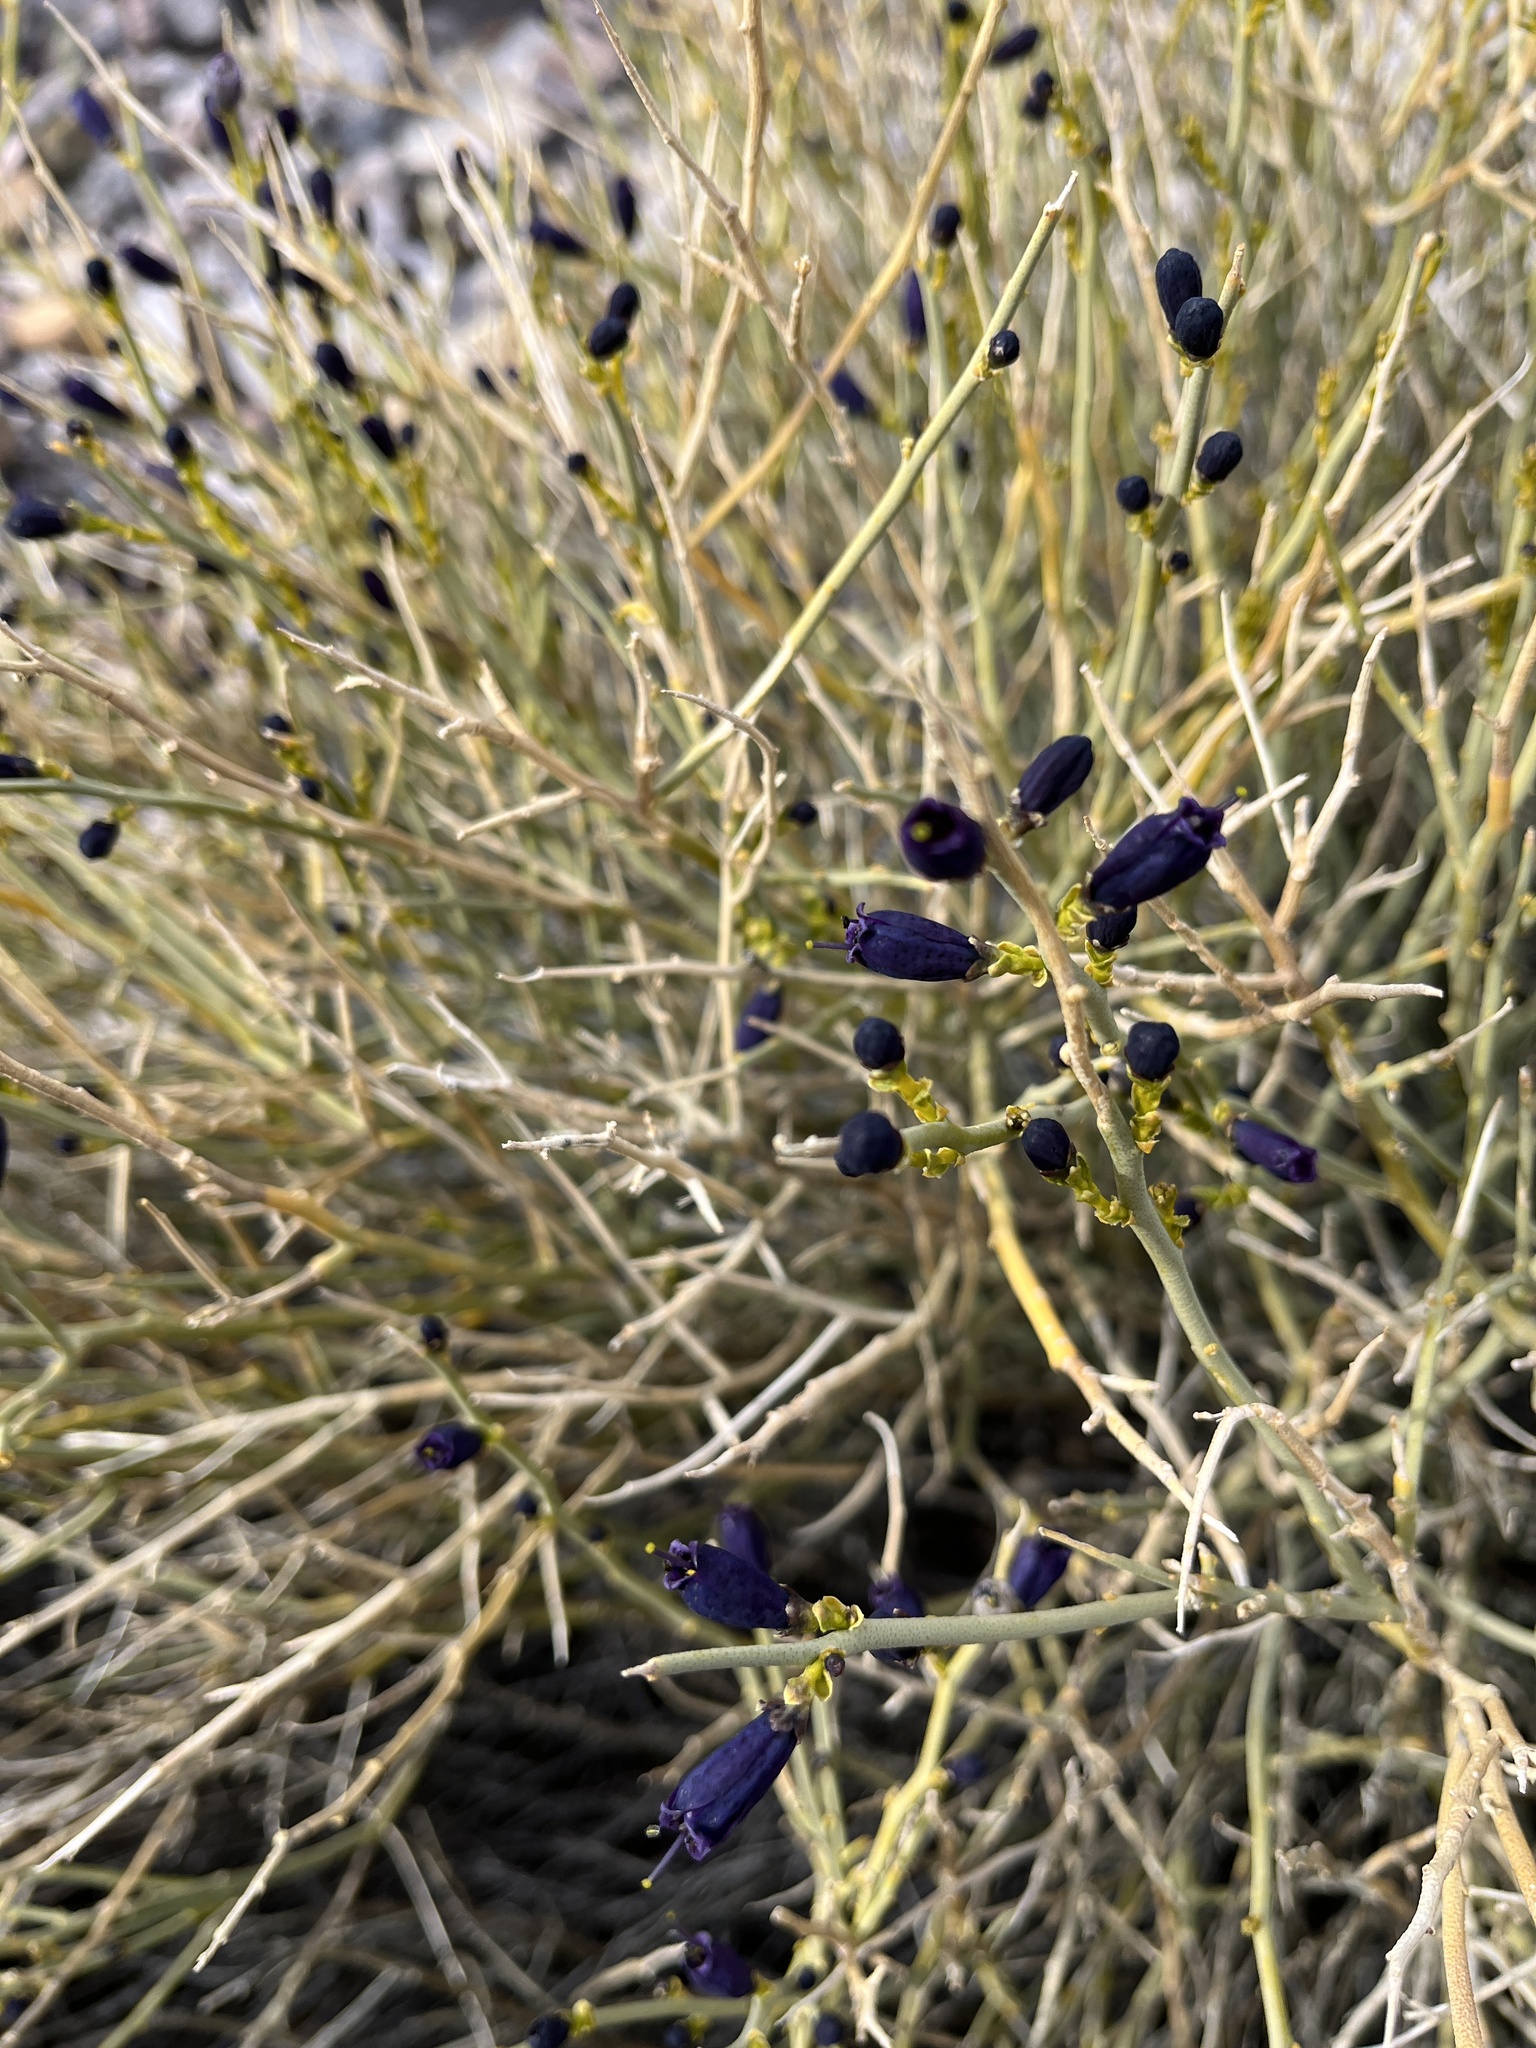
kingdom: Plantae
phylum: Tracheophyta
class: Magnoliopsida
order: Sapindales
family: Rutaceae
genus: Thamnosma
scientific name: Thamnosma montana
